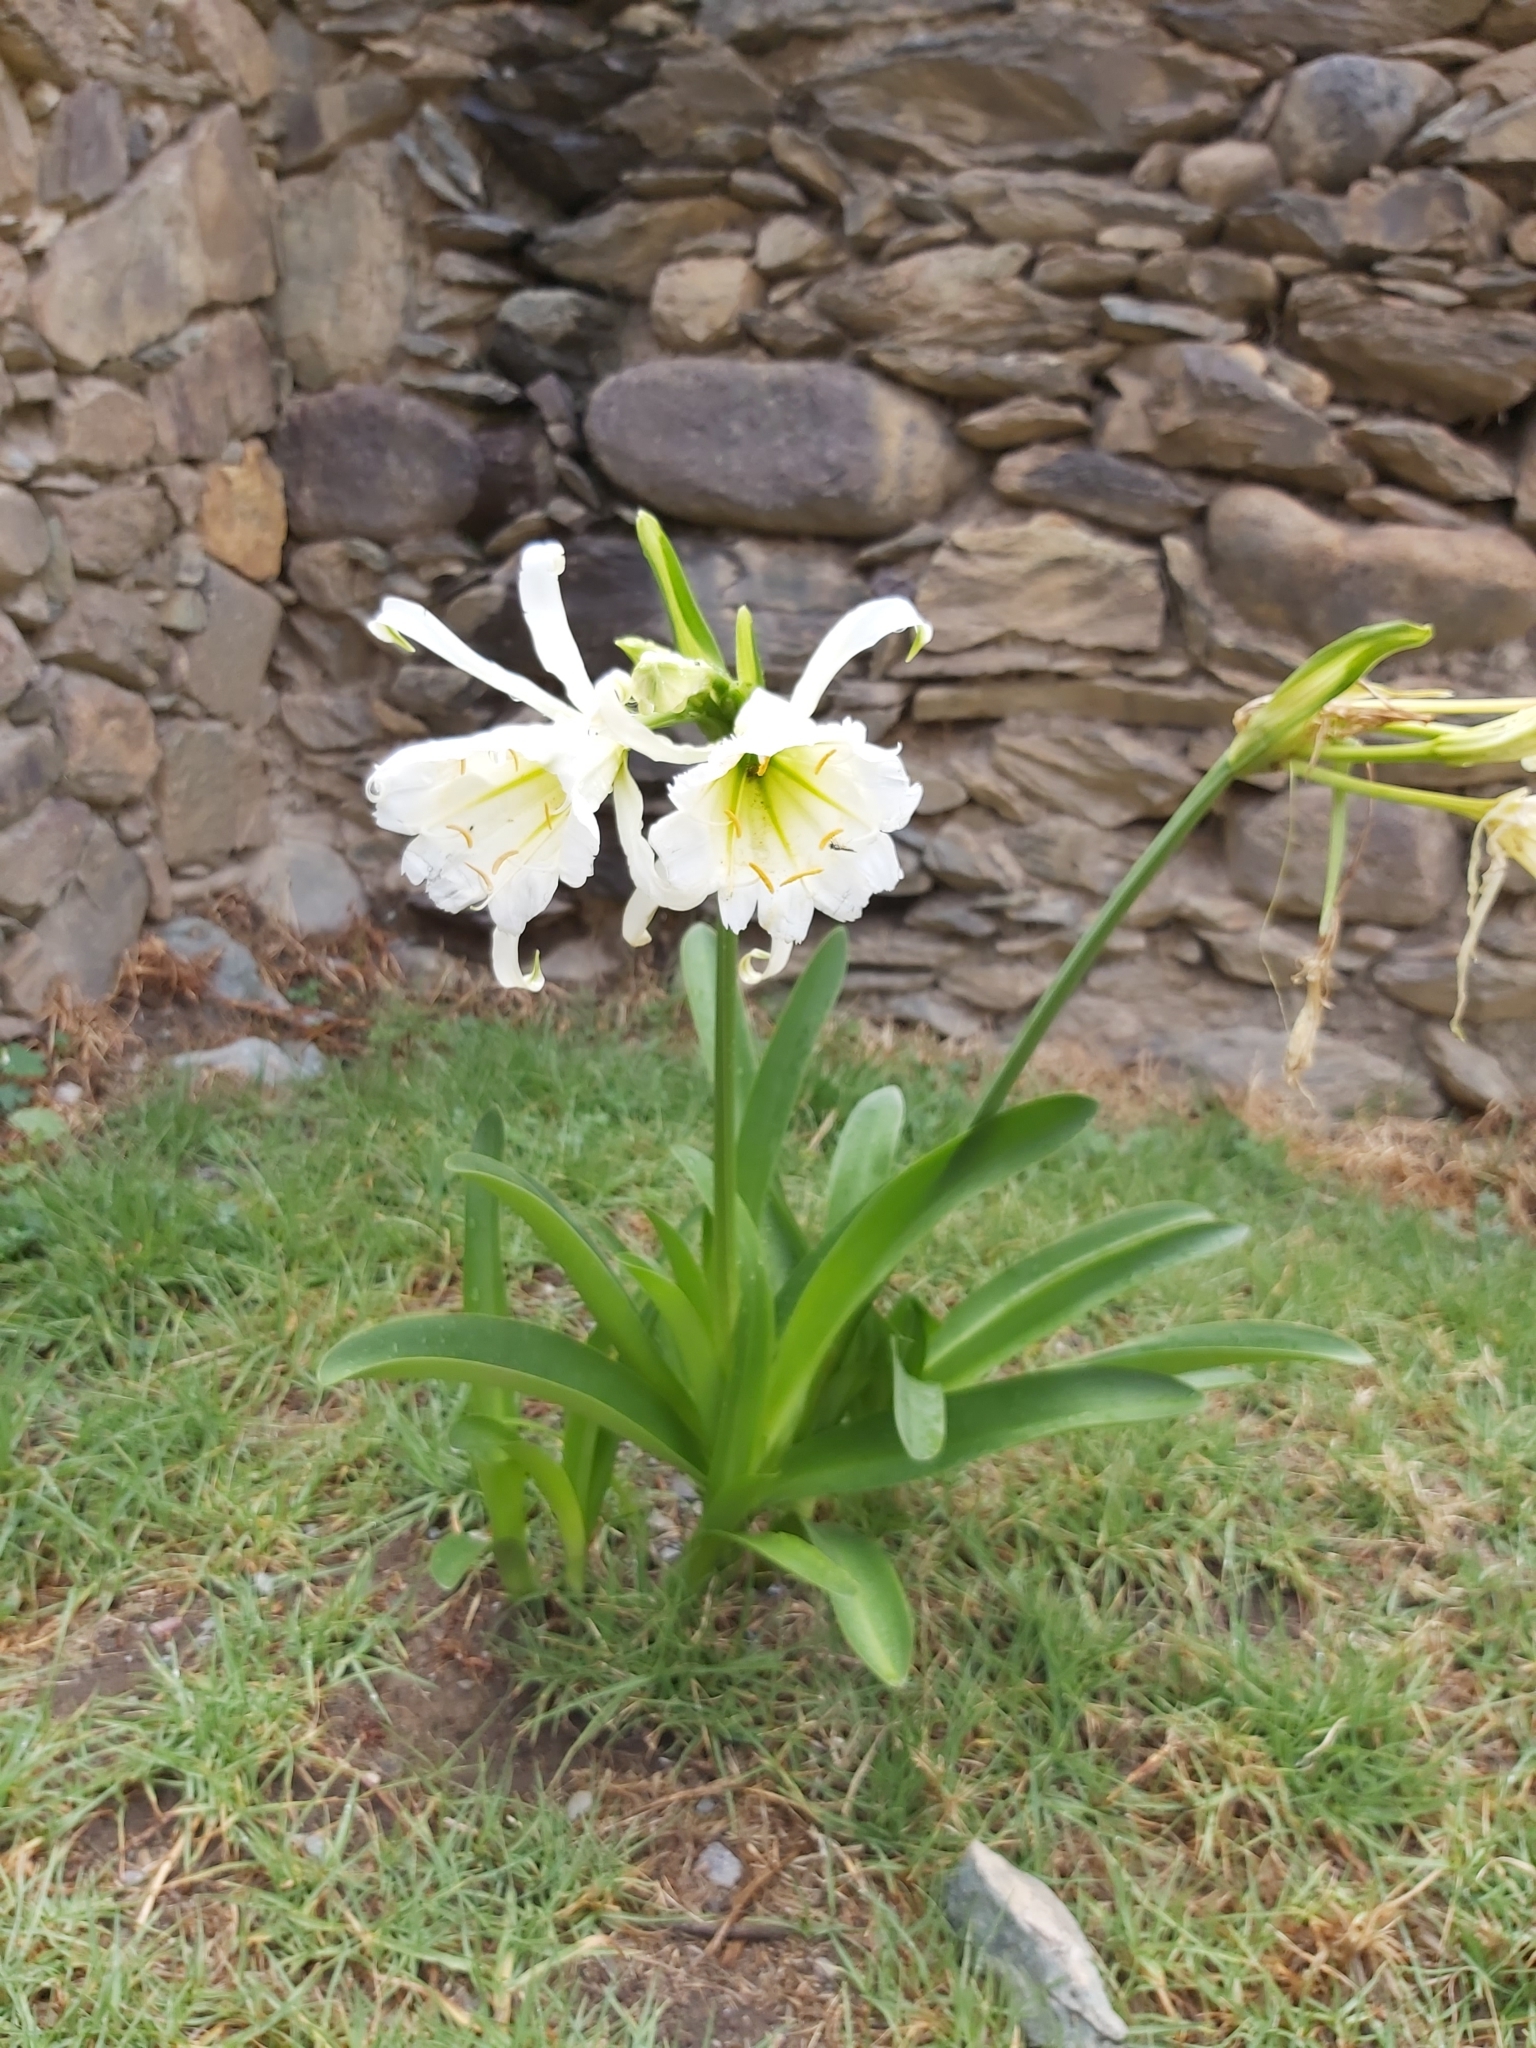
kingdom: Plantae
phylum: Tracheophyta
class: Liliopsida
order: Asparagales
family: Amaryllidaceae
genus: Ismene
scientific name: Ismene hawkesii
